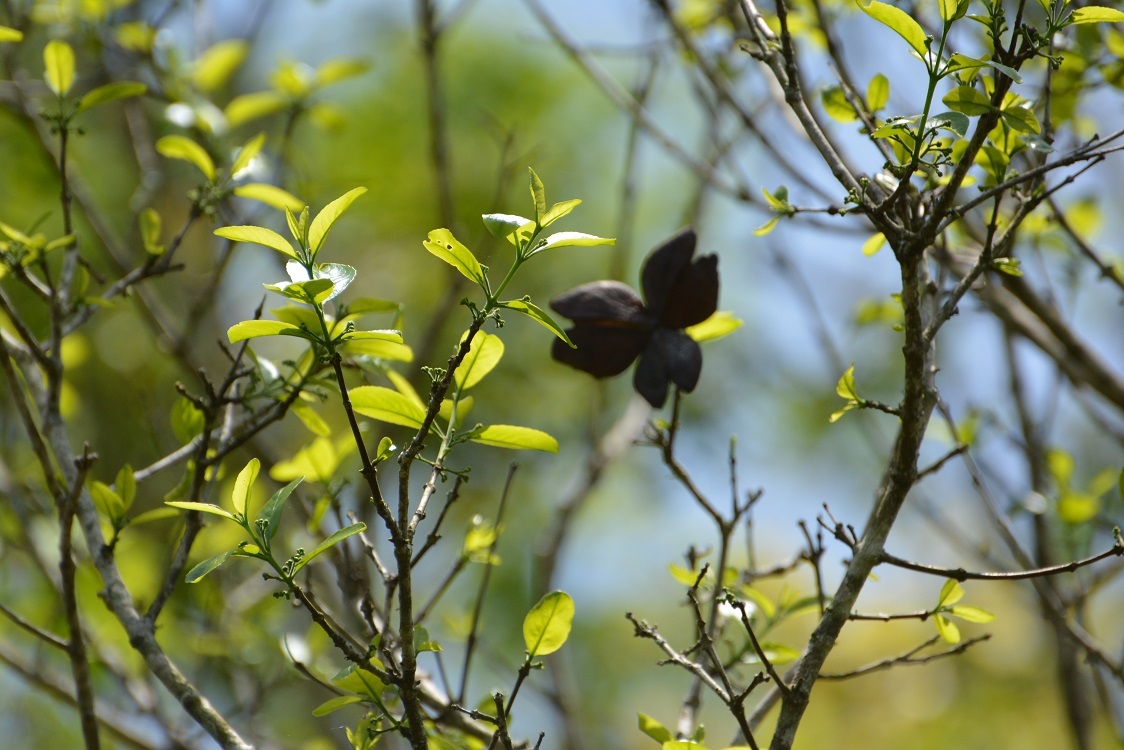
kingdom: Plantae
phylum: Tracheophyta
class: Magnoliopsida
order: Celastrales
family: Celastraceae
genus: Semialarium
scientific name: Semialarium mexicanum
